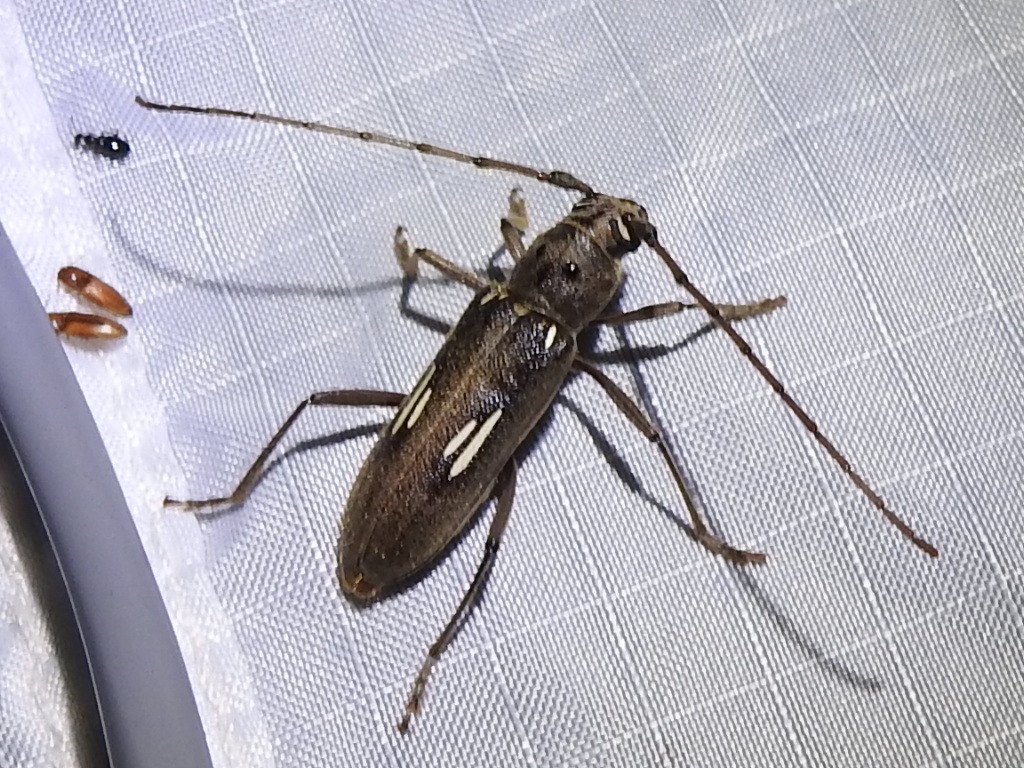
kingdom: Animalia
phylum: Arthropoda
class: Insecta
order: Coleoptera
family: Cerambycidae
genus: Eburia
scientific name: Eburia ovicollis
